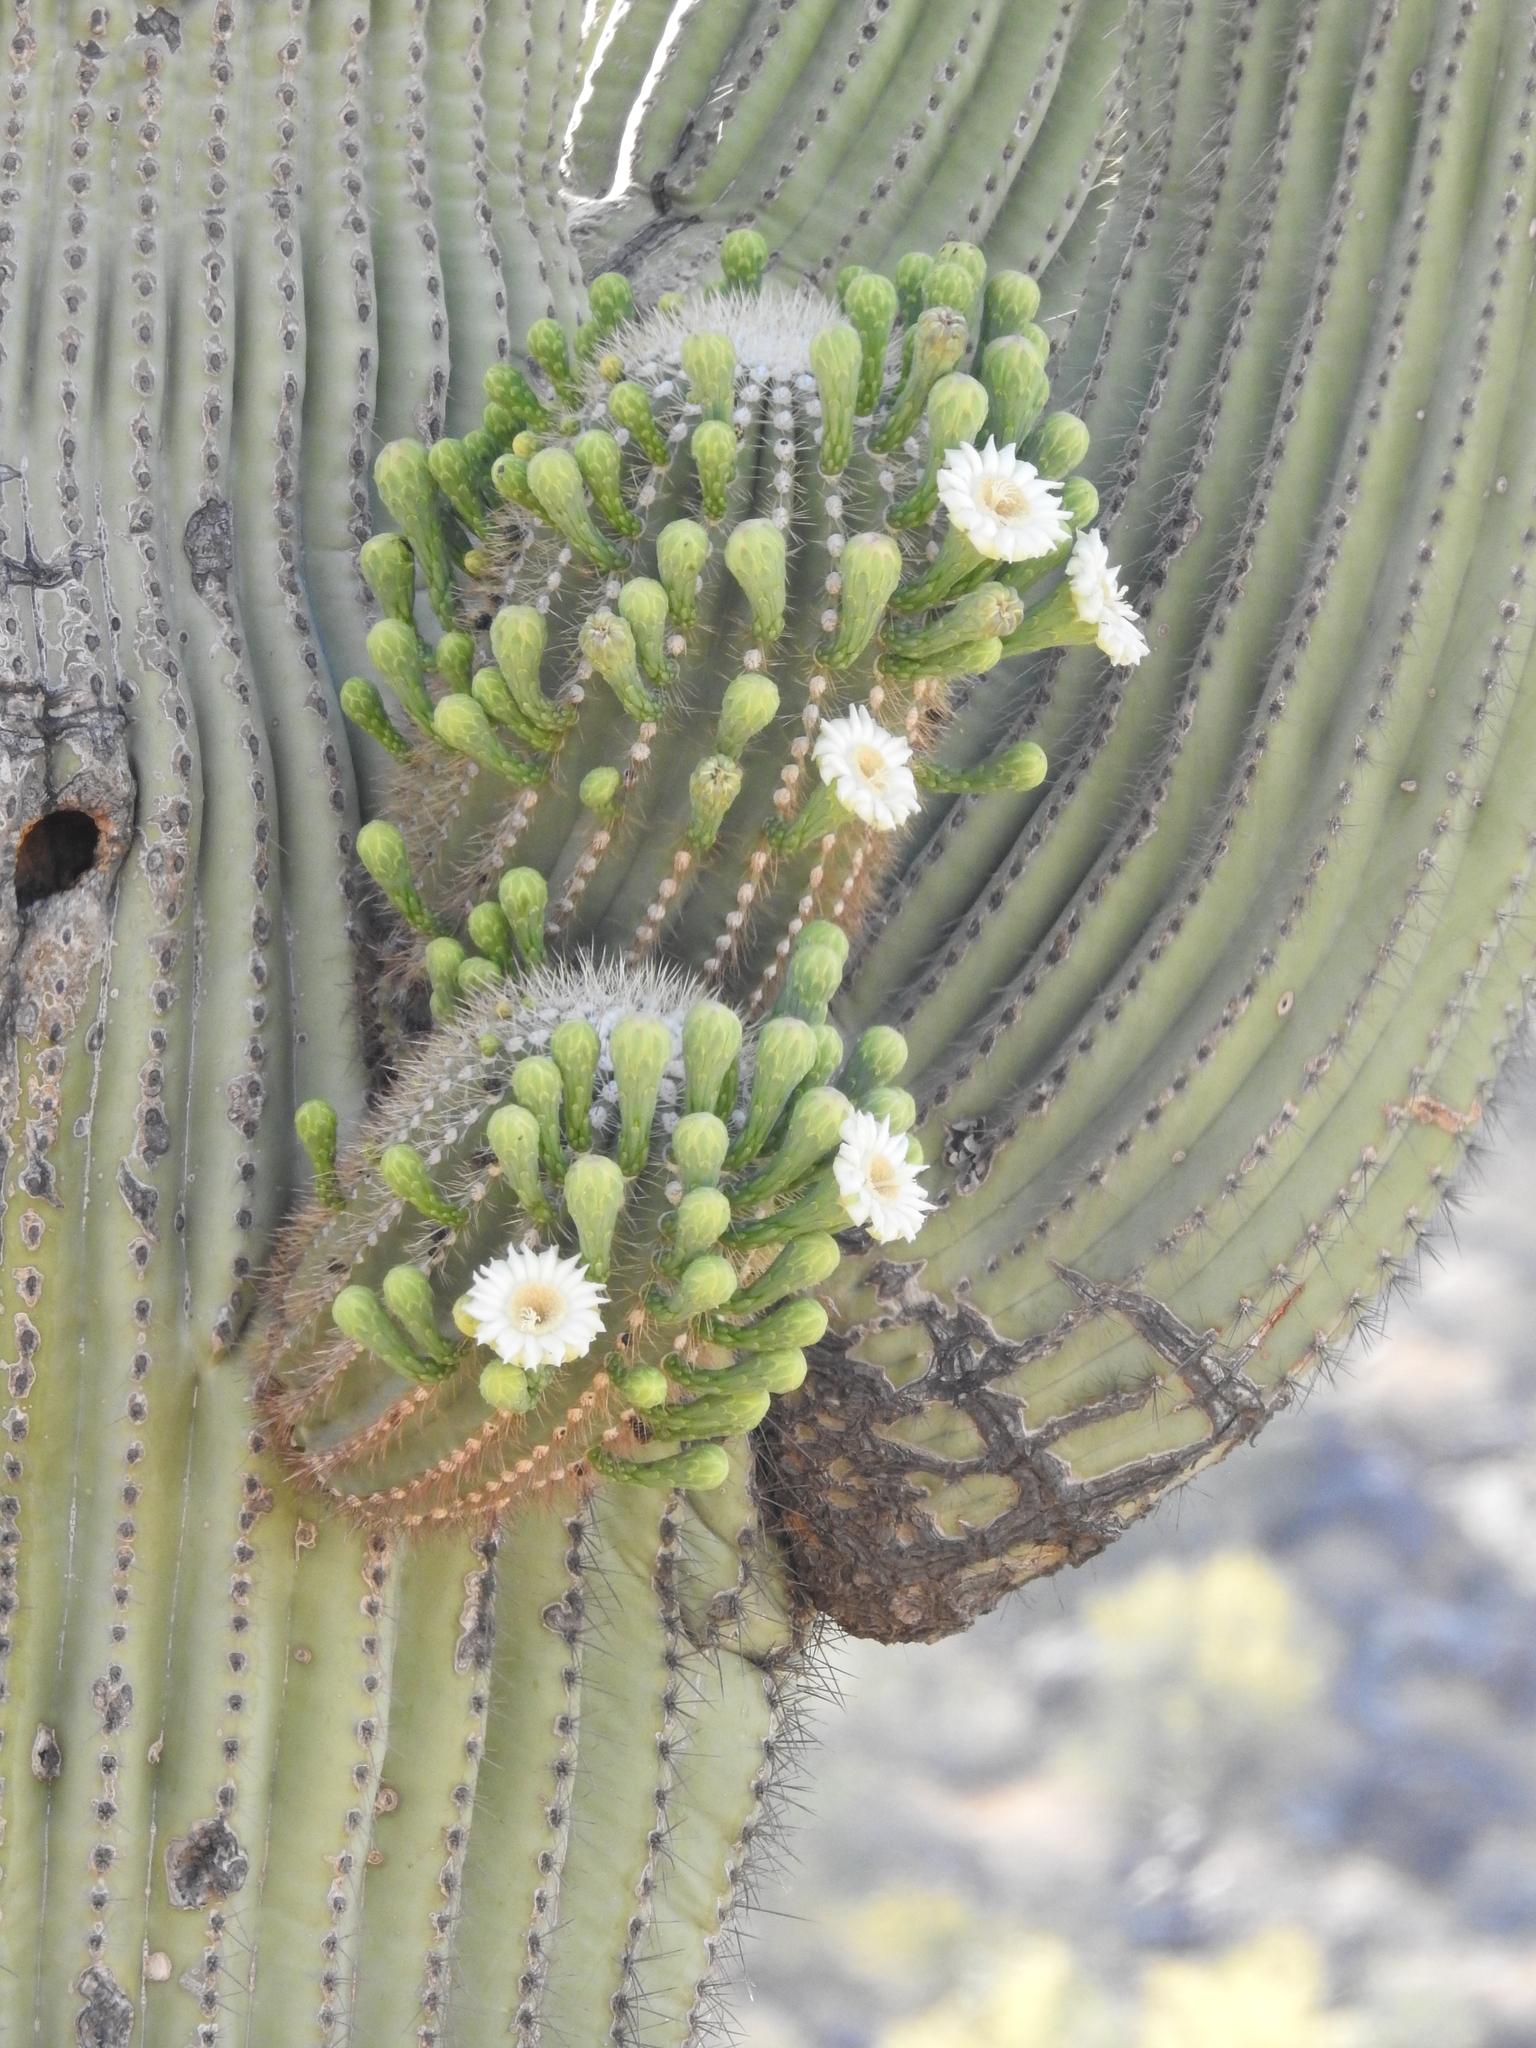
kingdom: Plantae
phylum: Tracheophyta
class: Magnoliopsida
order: Caryophyllales
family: Cactaceae
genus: Carnegiea
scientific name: Carnegiea gigantea
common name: Saguaro
